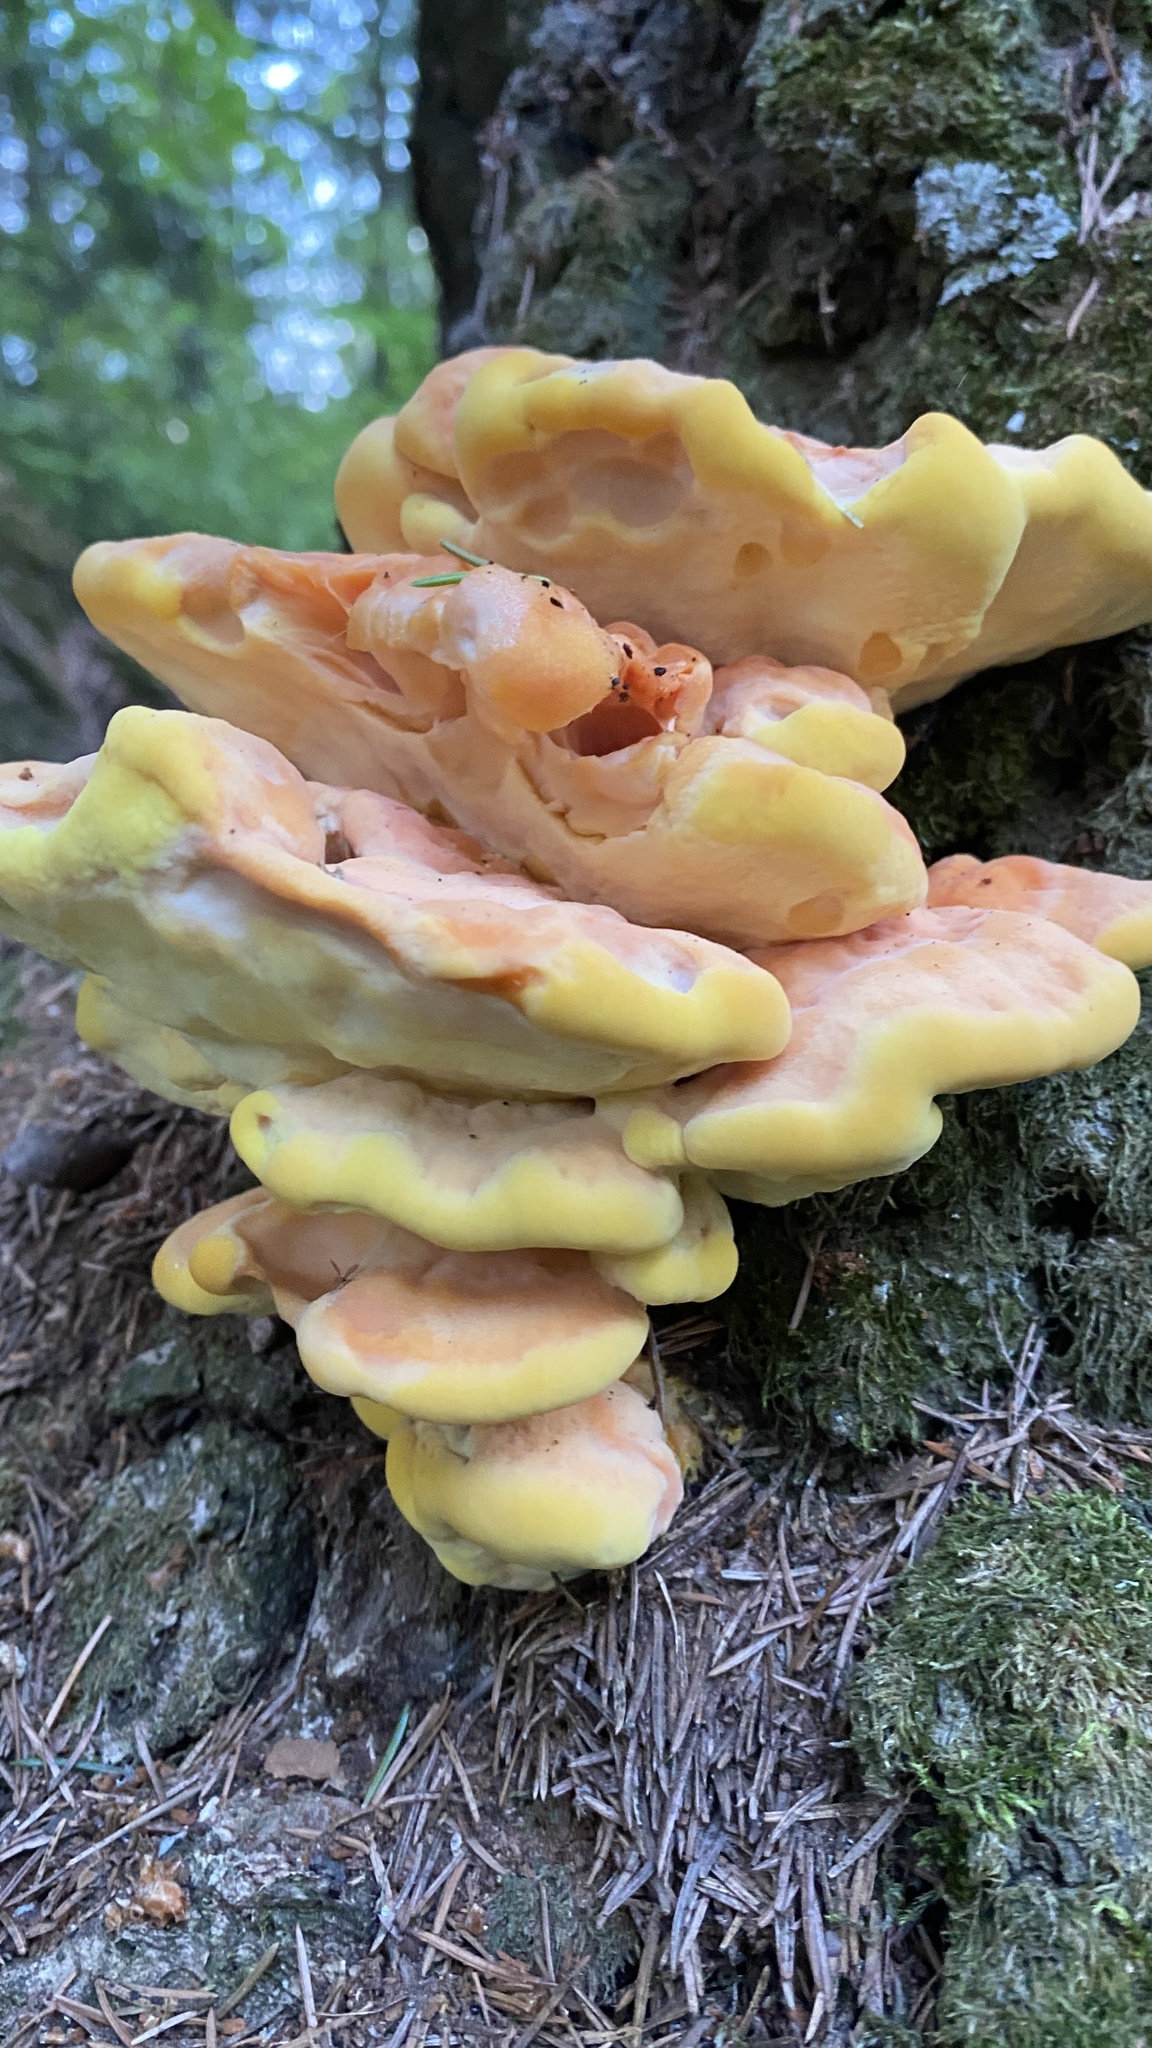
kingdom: Fungi
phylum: Basidiomycota
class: Agaricomycetes
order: Polyporales
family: Laetiporaceae
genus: Laetiporus
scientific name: Laetiporus sulphureus
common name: Chicken of the woods
